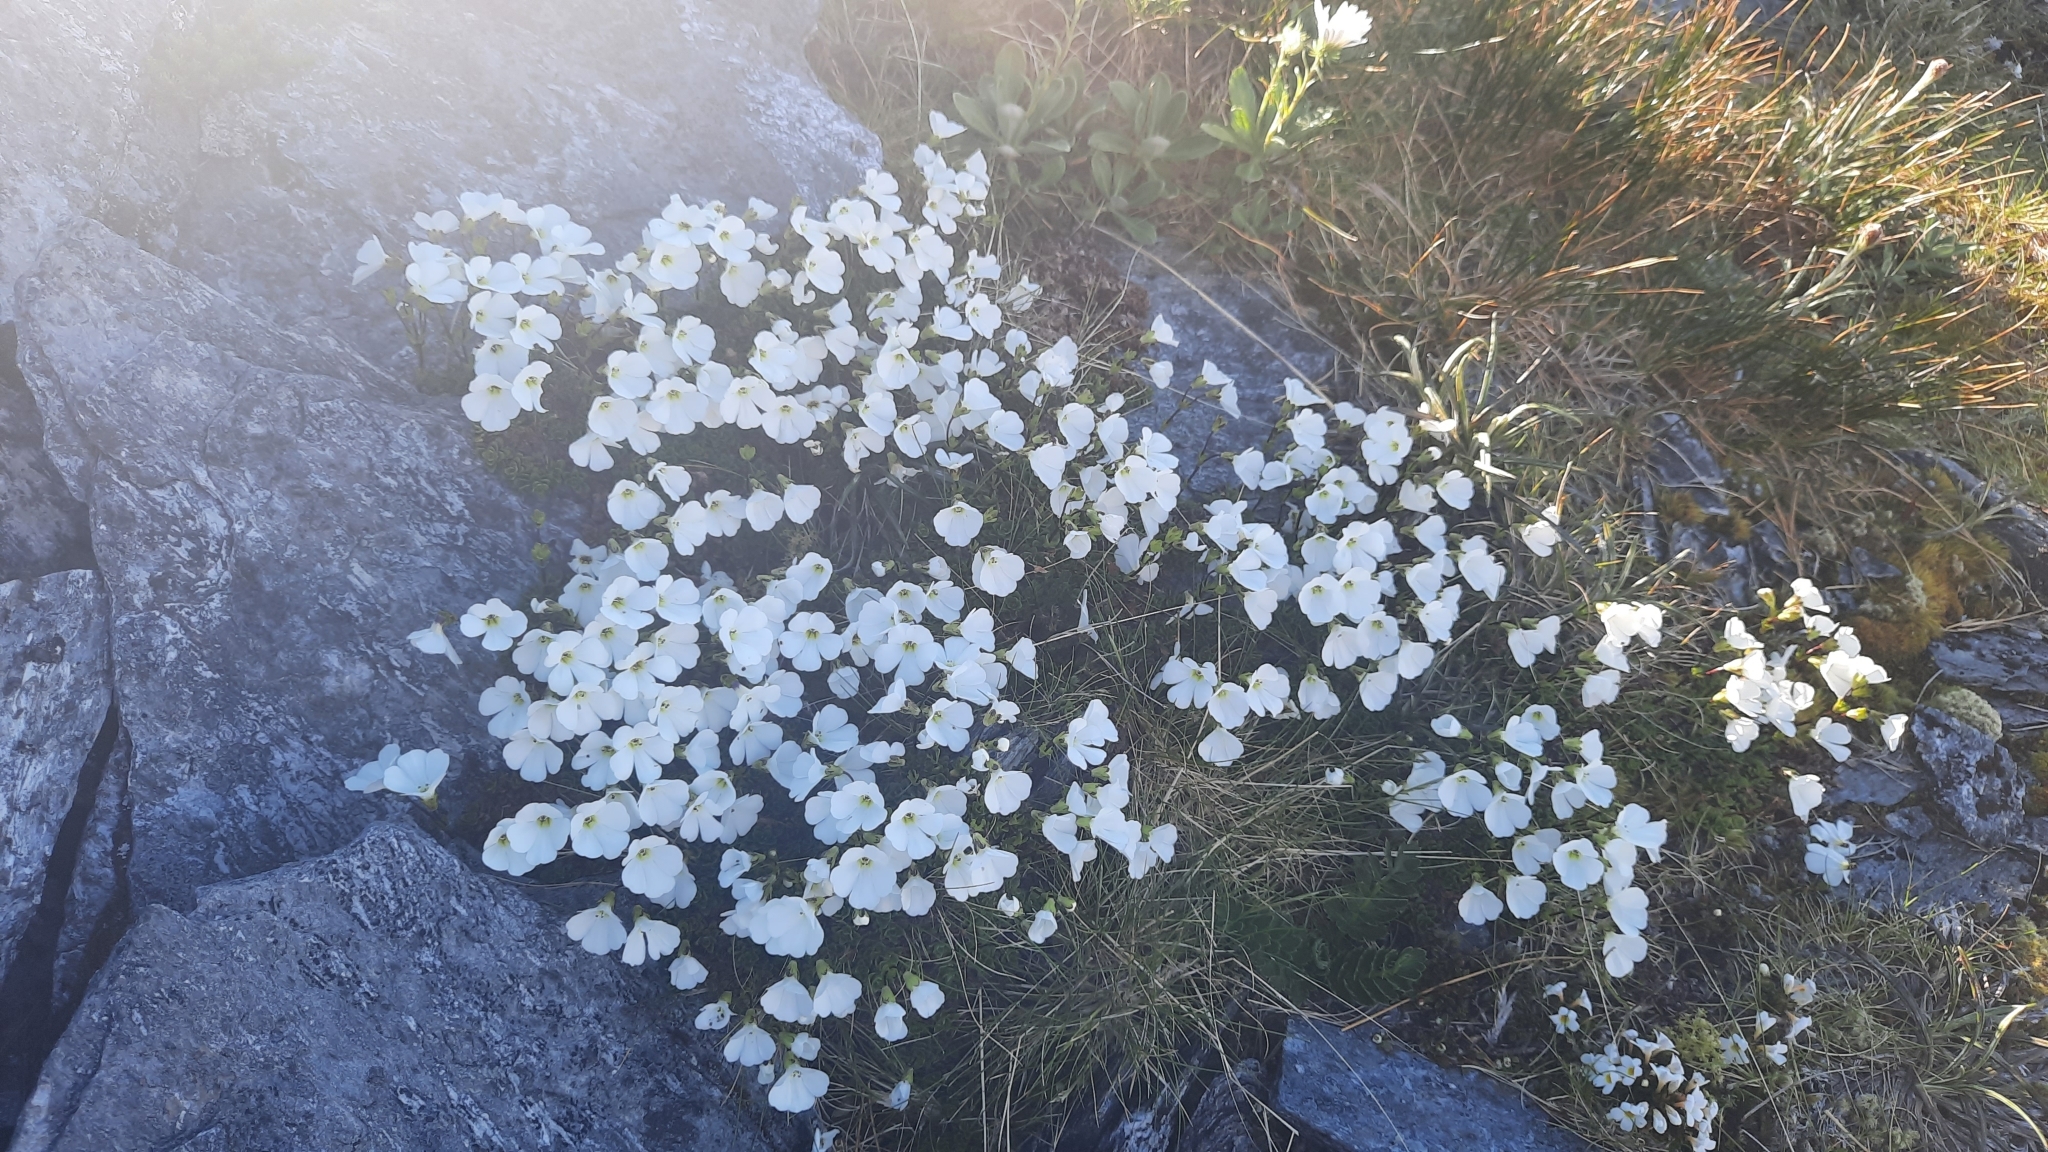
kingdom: Plantae
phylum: Tracheophyta
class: Magnoliopsida
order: Lamiales
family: Plantaginaceae
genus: Ourisia
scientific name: Ourisia caespitosa
